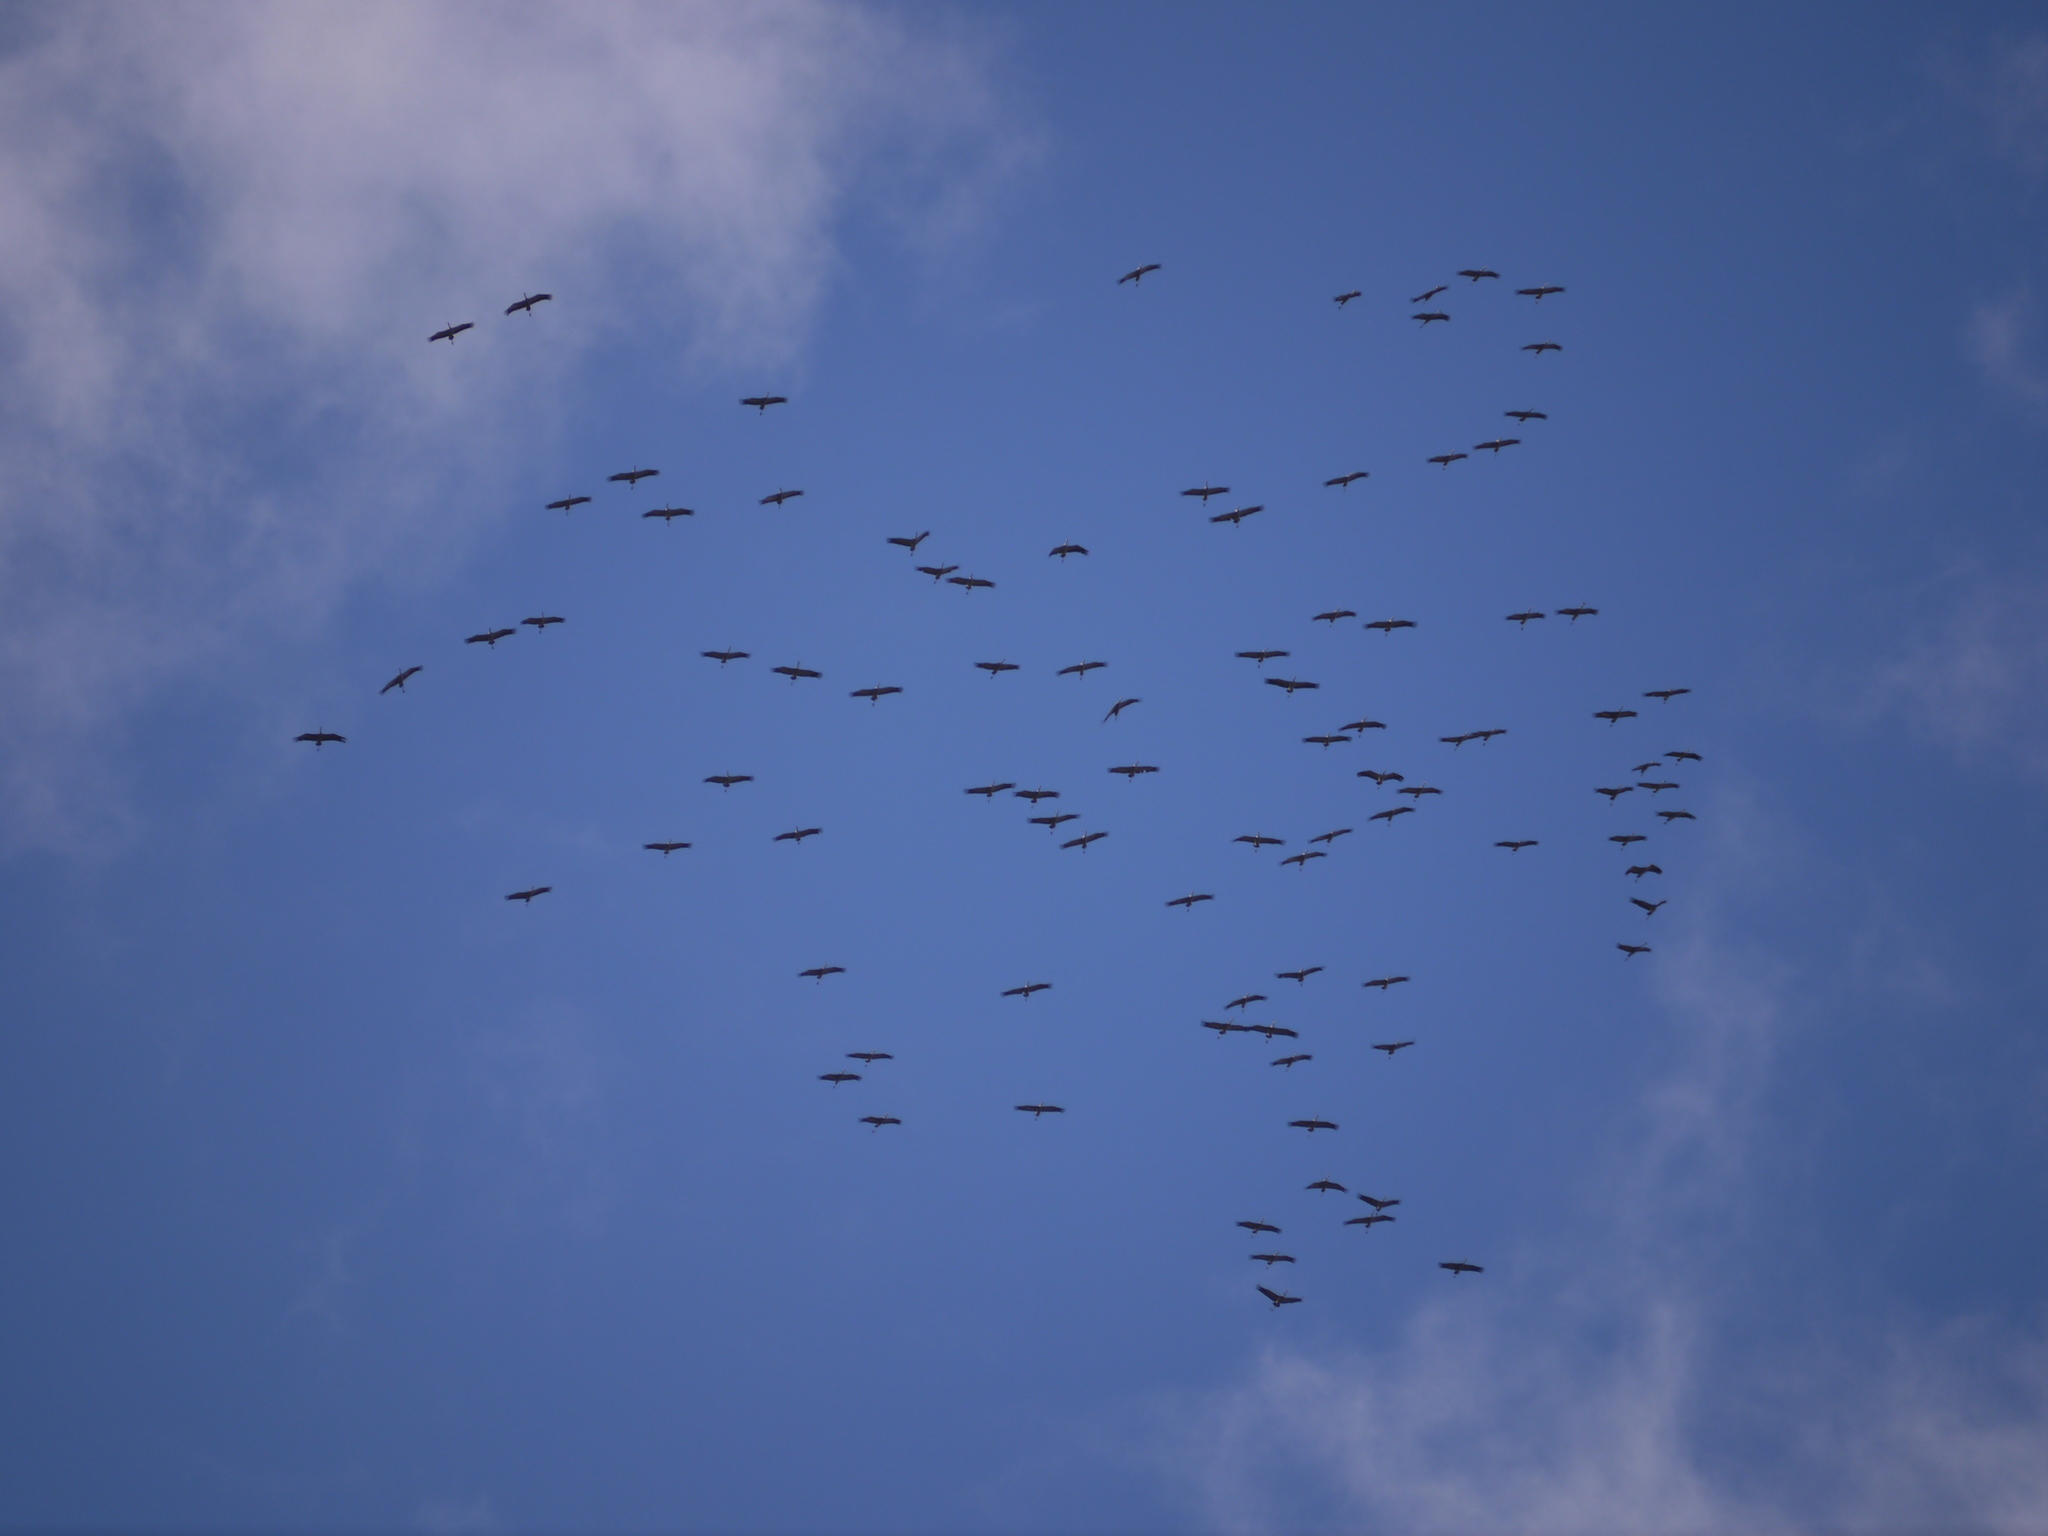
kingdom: Animalia
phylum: Chordata
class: Aves
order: Gruiformes
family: Gruidae
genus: Grus
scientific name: Grus grus
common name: Common crane
